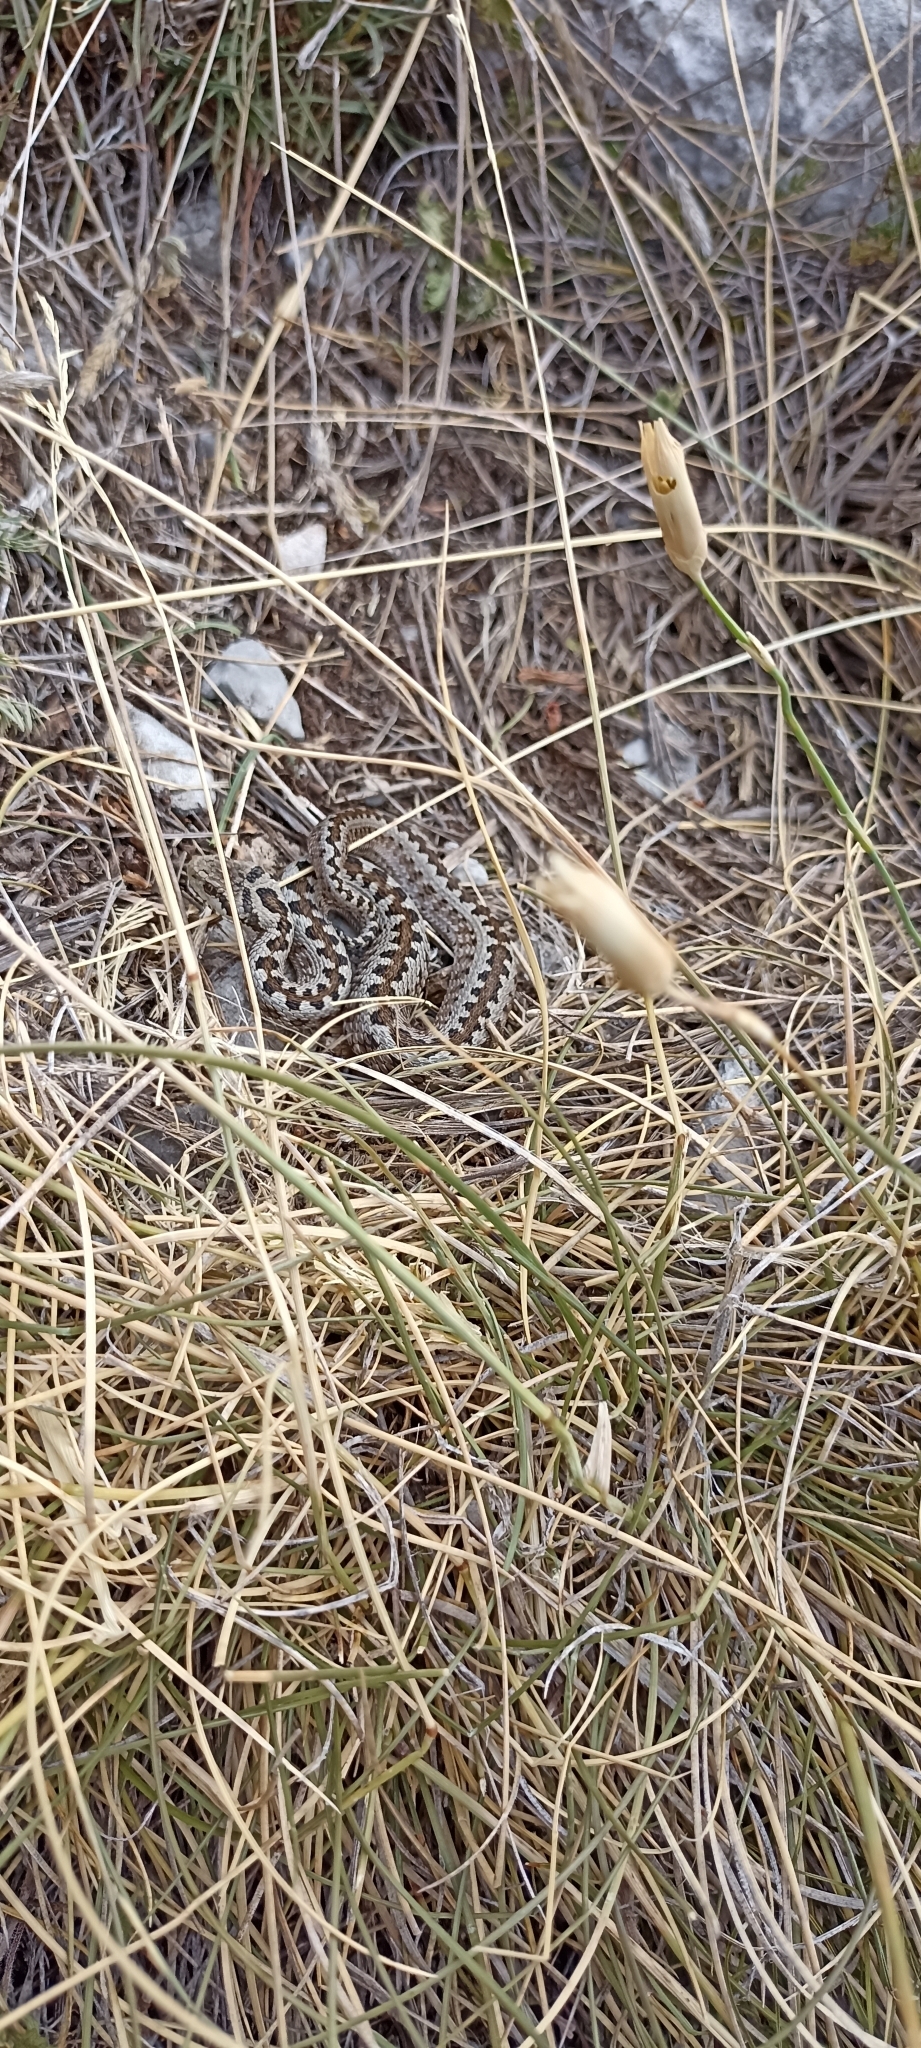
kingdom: Animalia
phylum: Chordata
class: Squamata
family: Viperidae
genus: Vipera
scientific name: Vipera ursinii
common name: Meadow viper
